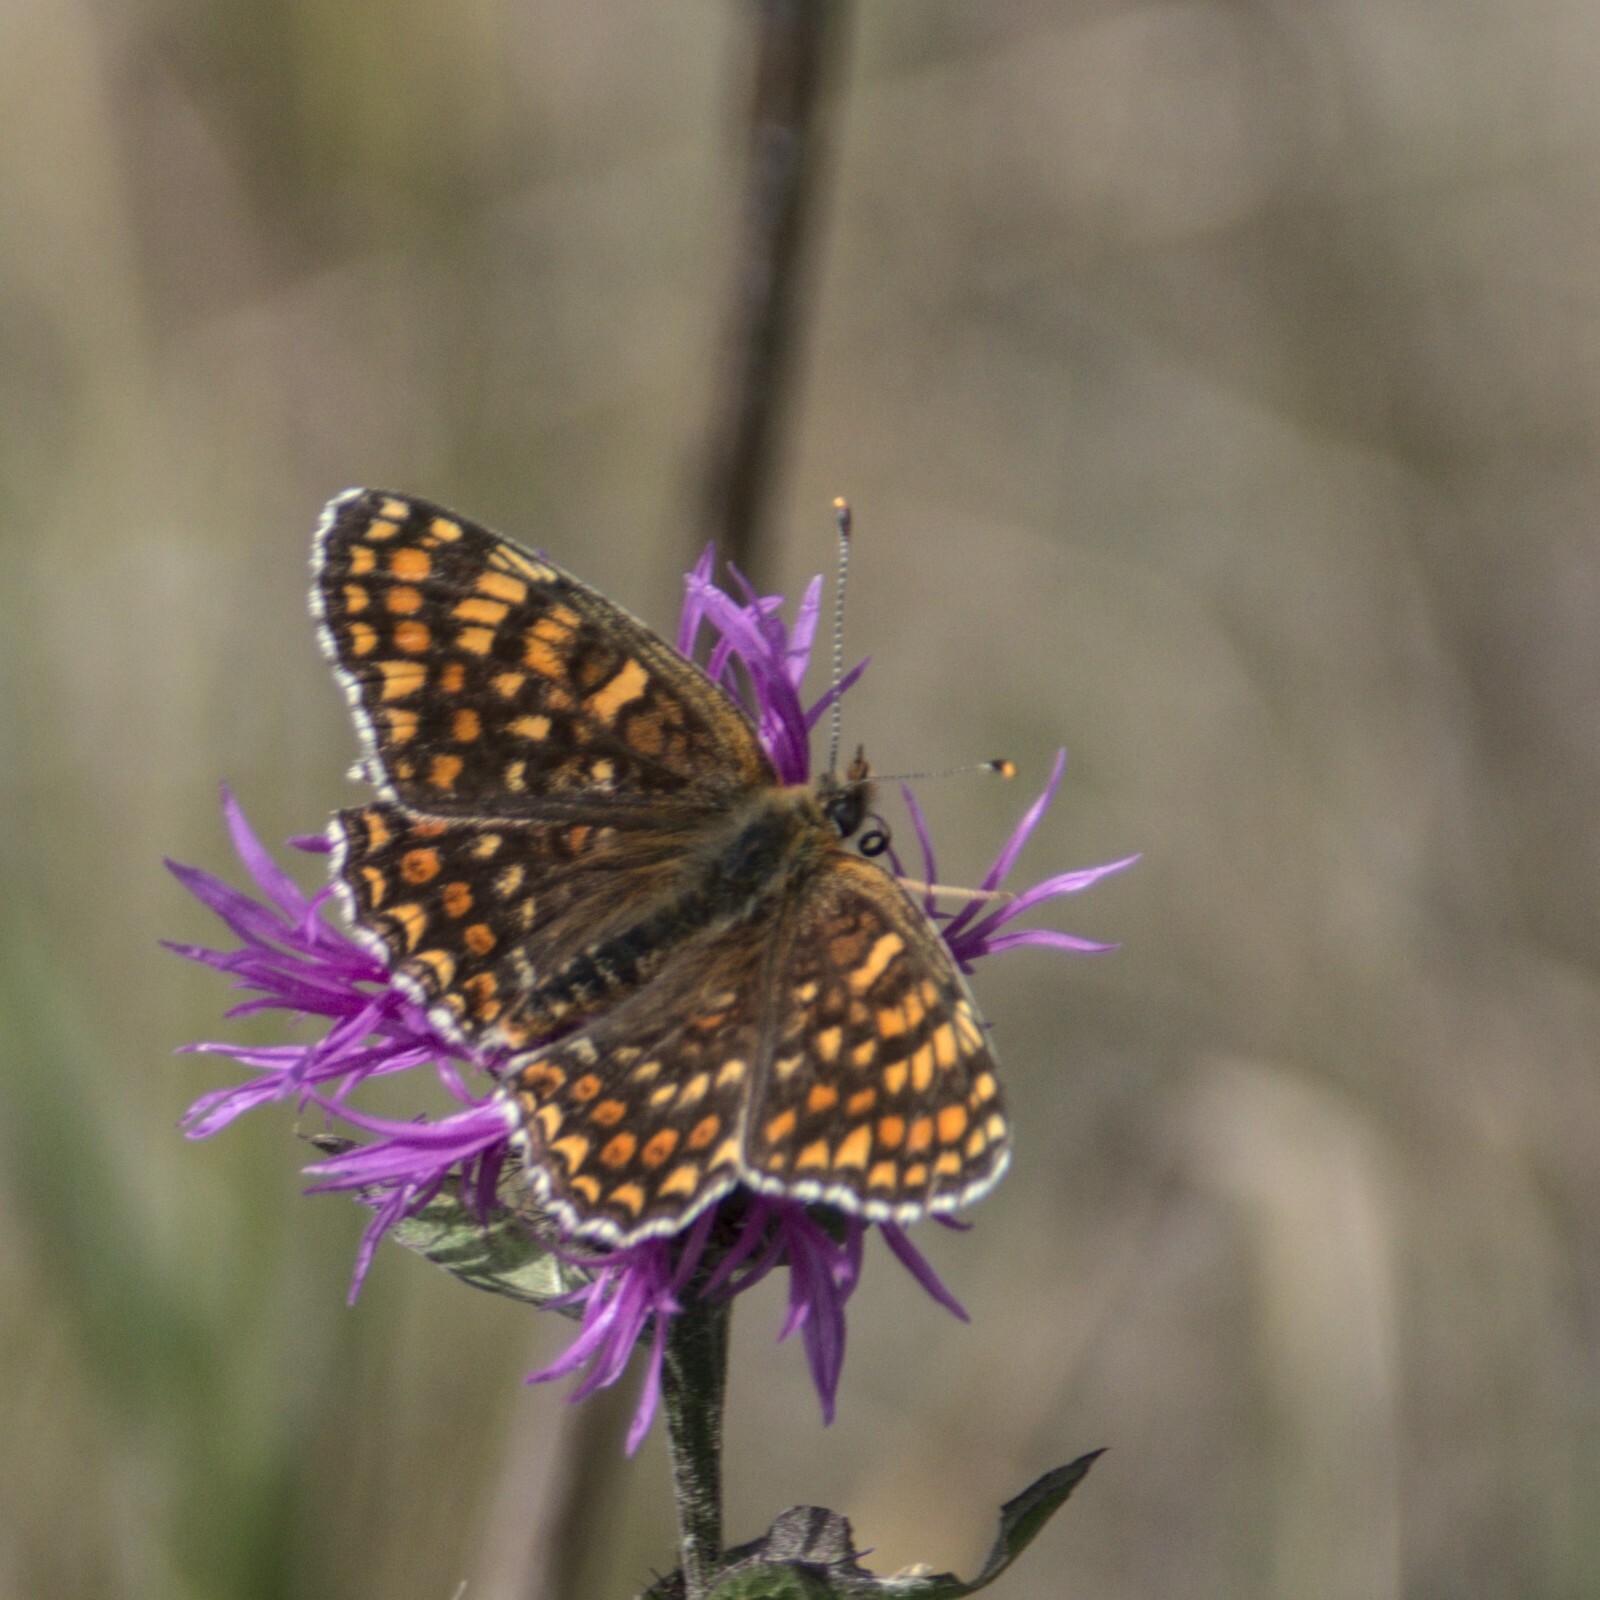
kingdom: Animalia
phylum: Arthropoda
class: Insecta
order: Lepidoptera
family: Nymphalidae
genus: Melitaea
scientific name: Melitaea phoebe
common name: Knapweed fritillary
